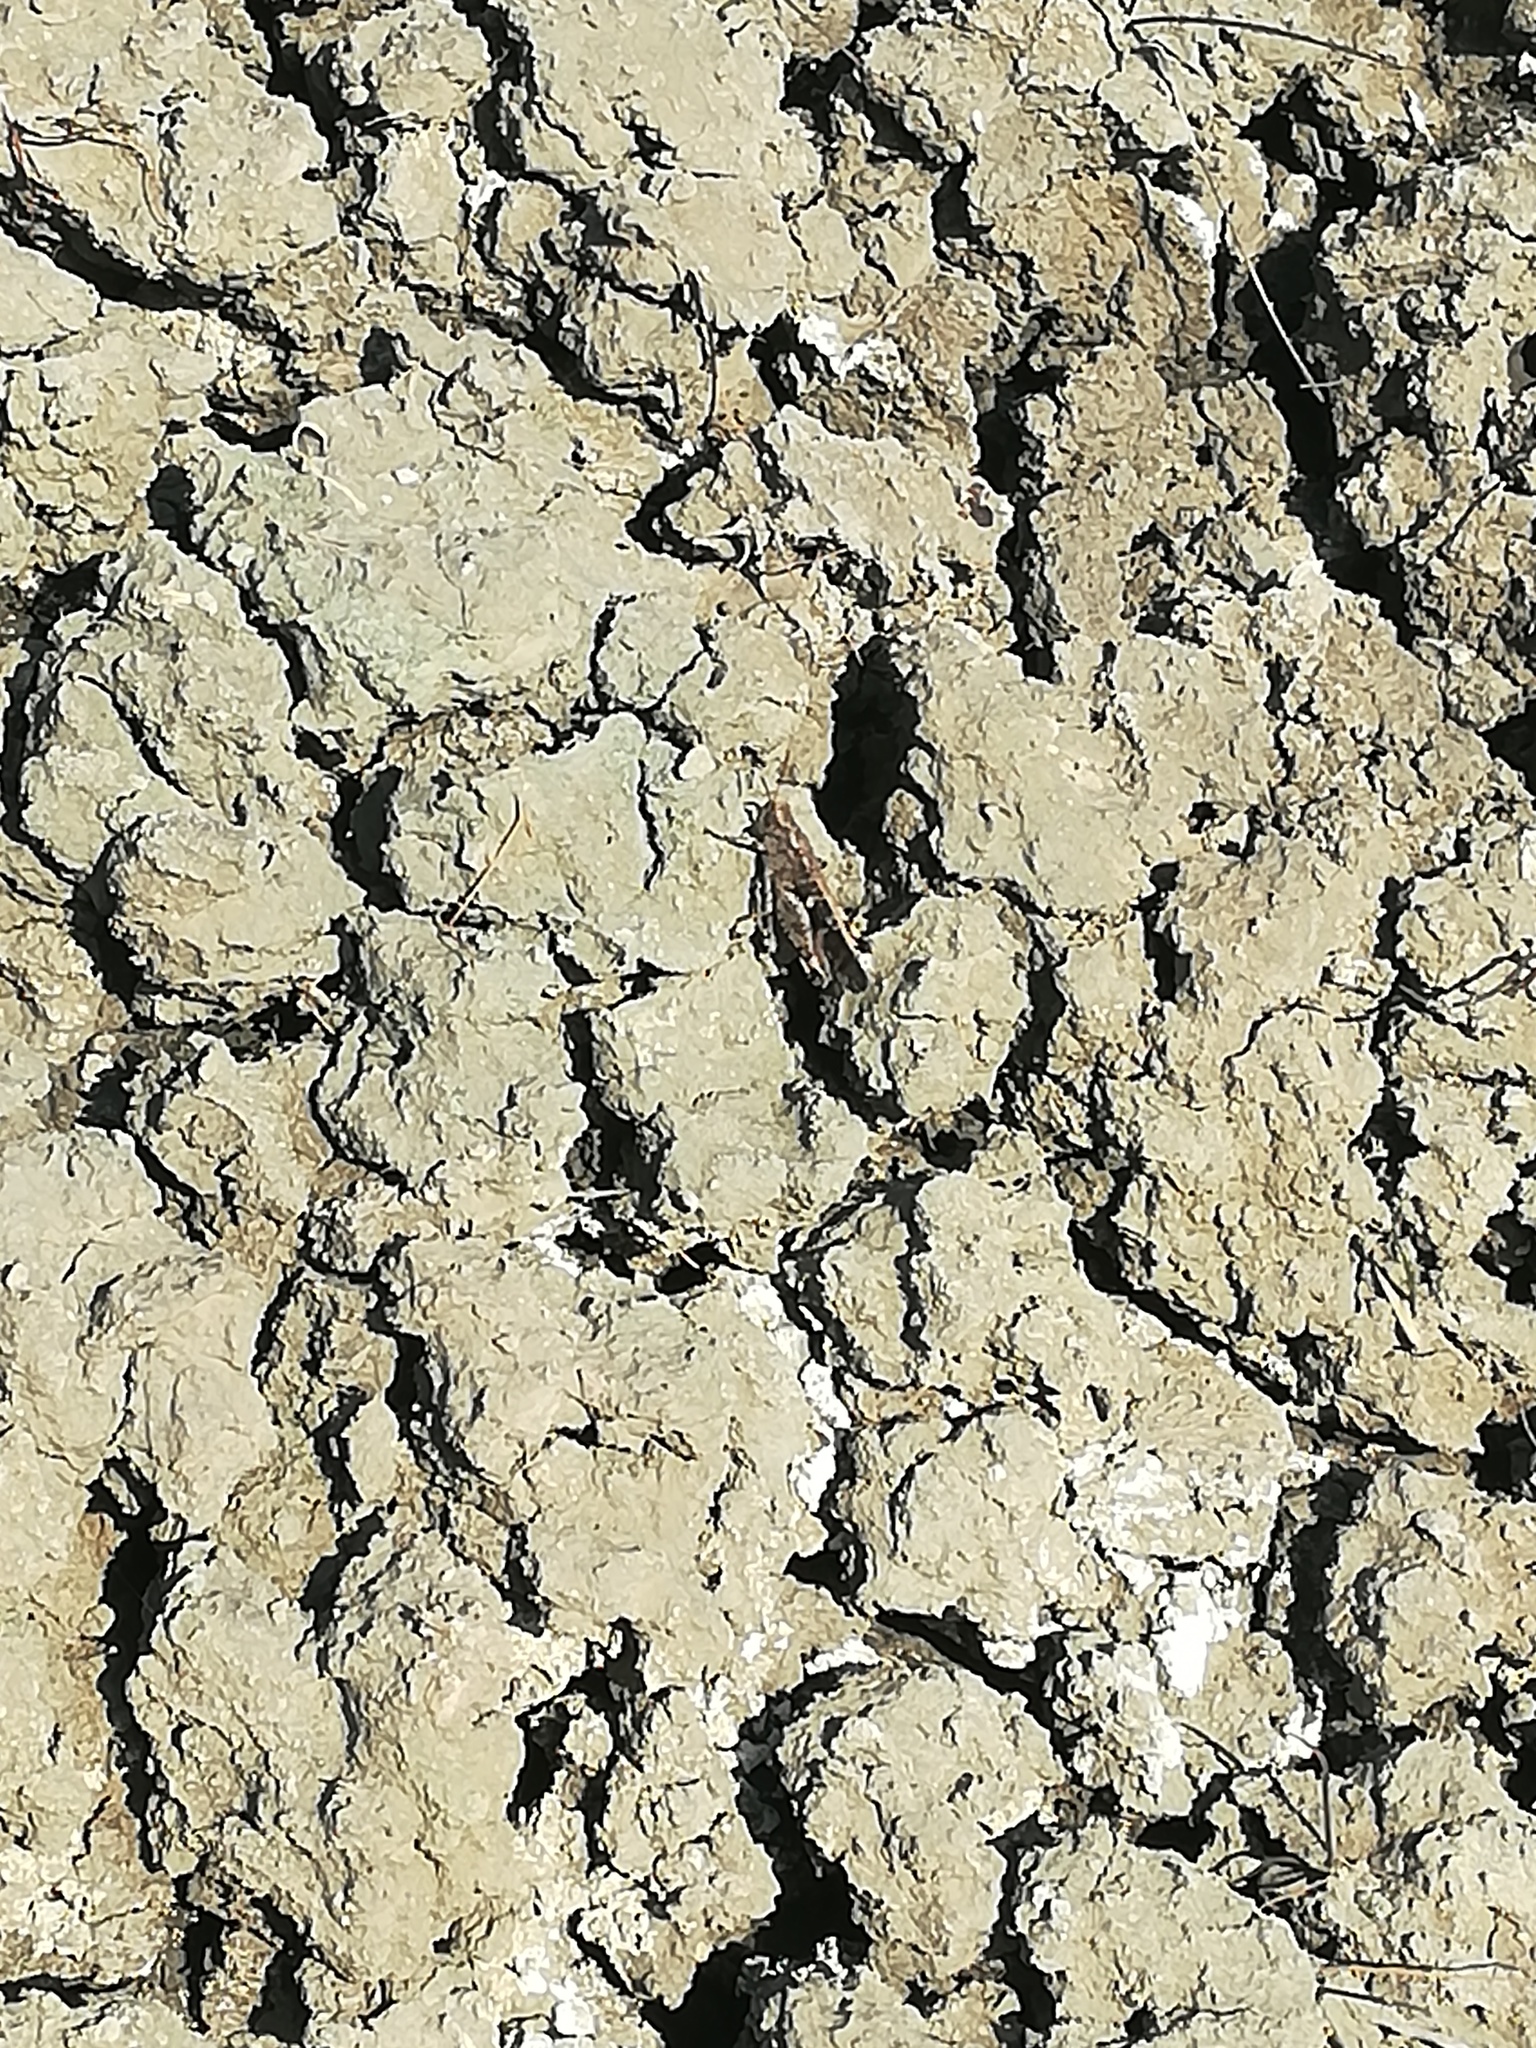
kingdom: Animalia
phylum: Arthropoda
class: Insecta
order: Orthoptera
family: Acrididae
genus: Aiolopus
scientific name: Aiolopus strepens
